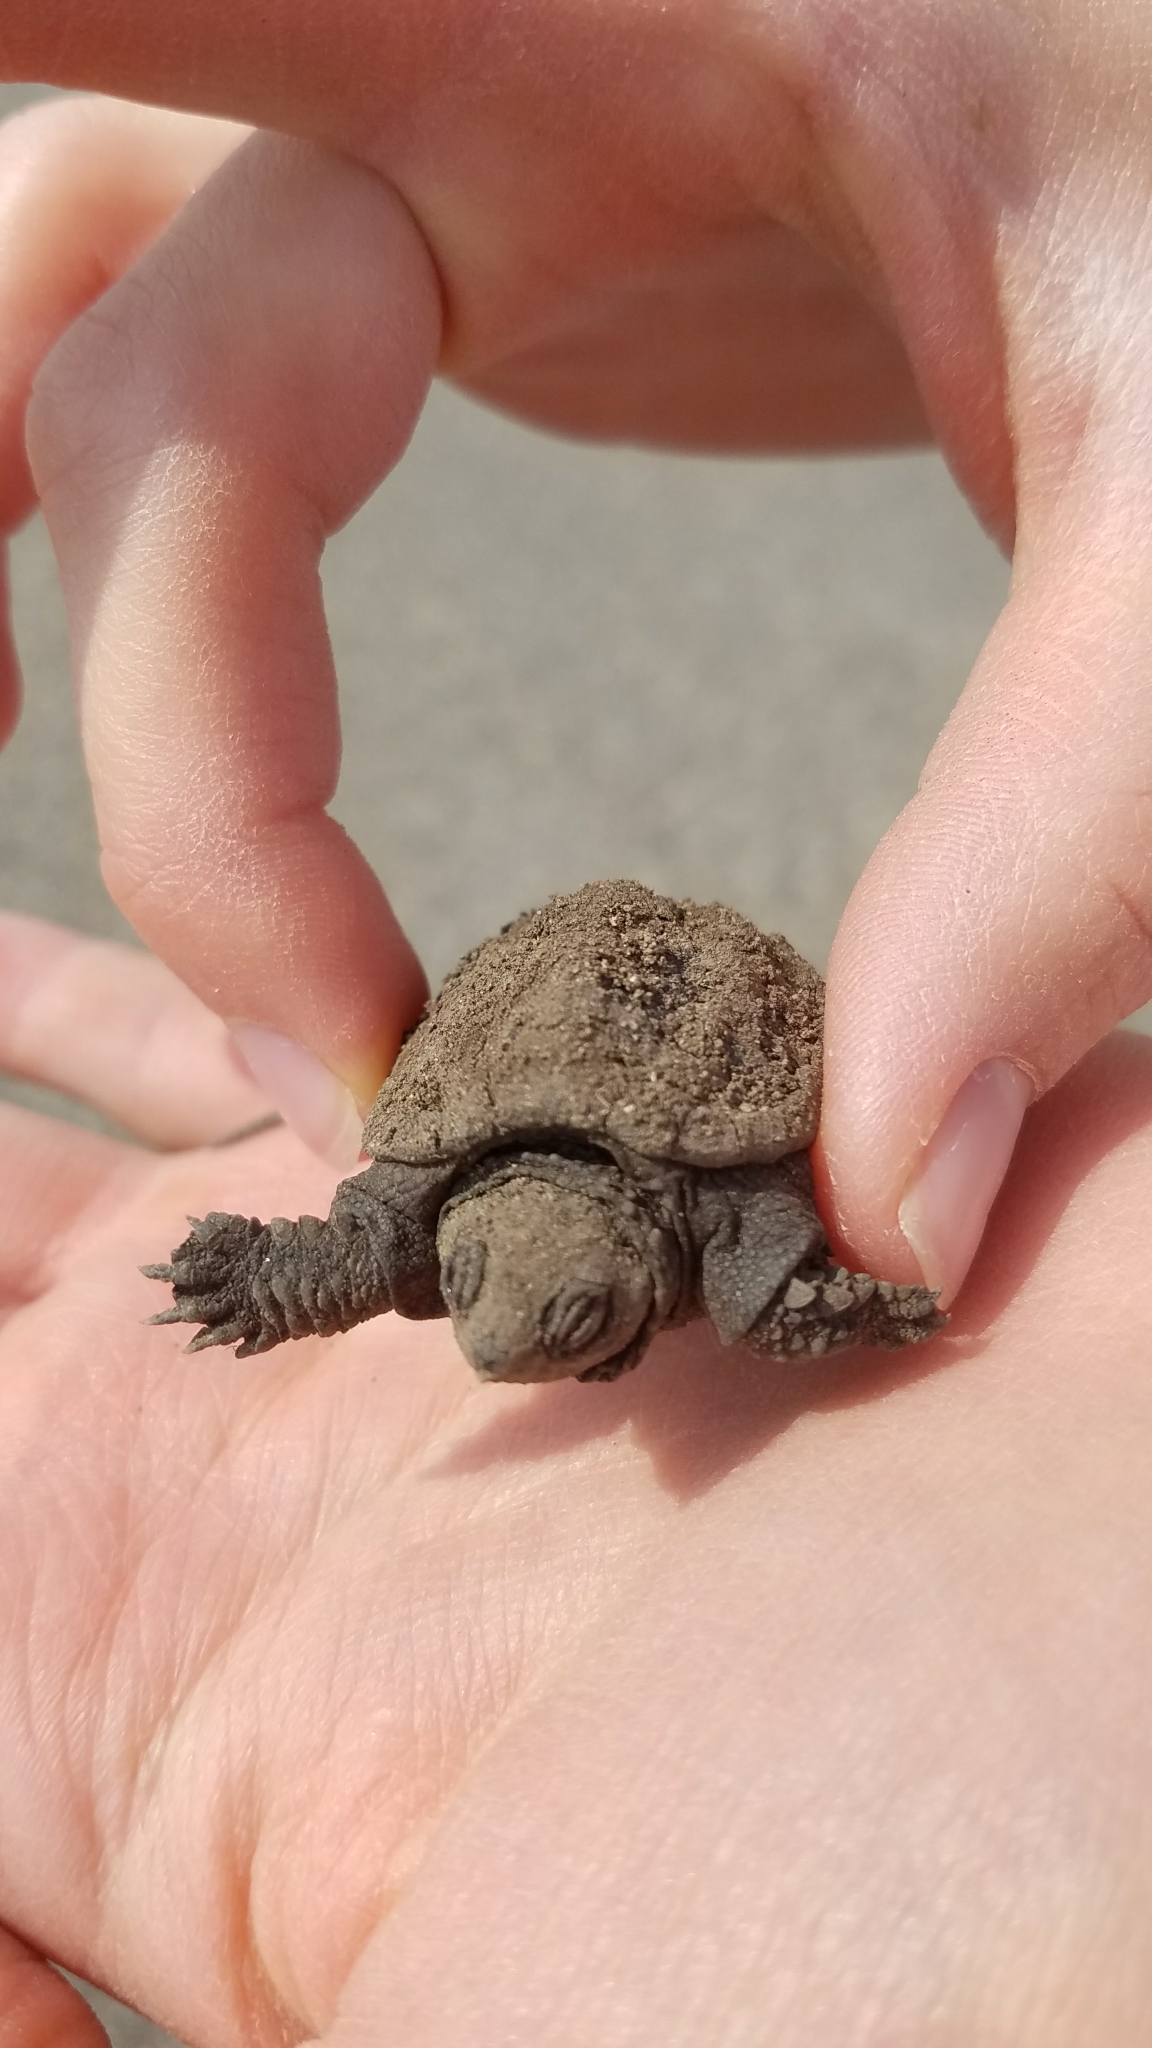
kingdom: Animalia
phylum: Chordata
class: Testudines
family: Chelydridae
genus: Chelydra
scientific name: Chelydra serpentina
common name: Common snapping turtle
